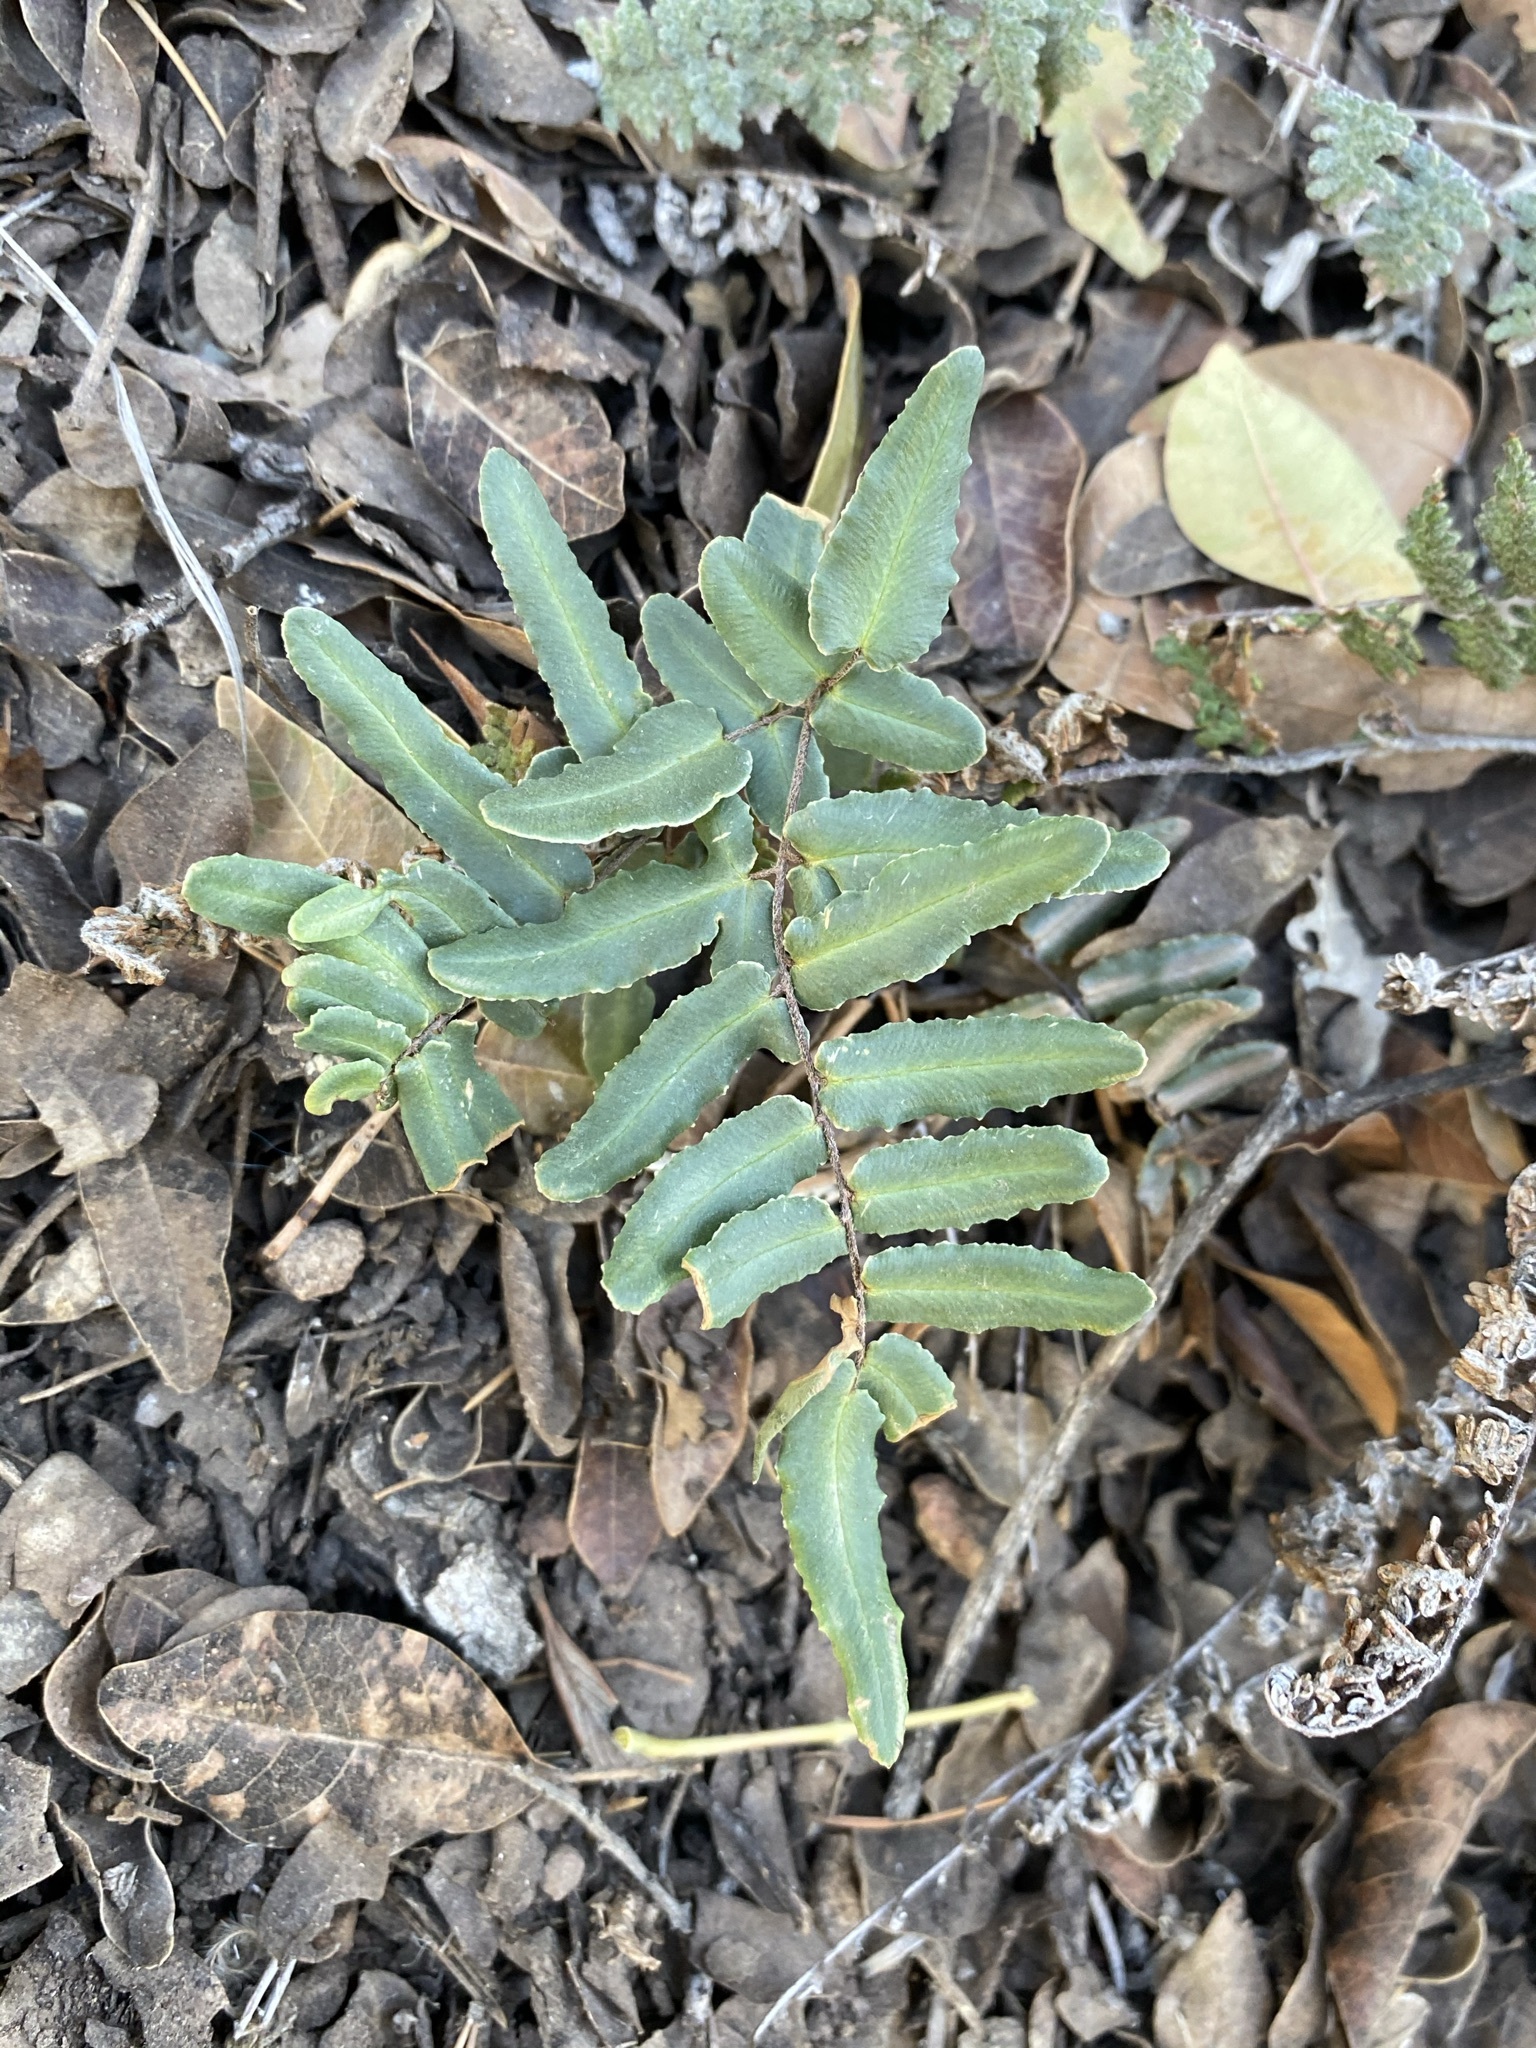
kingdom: Plantae
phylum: Tracheophyta
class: Polypodiopsida
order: Polypodiales
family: Pteridaceae
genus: Pellaea
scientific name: Pellaea atropurpurea
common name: Hairy cliffbrake
